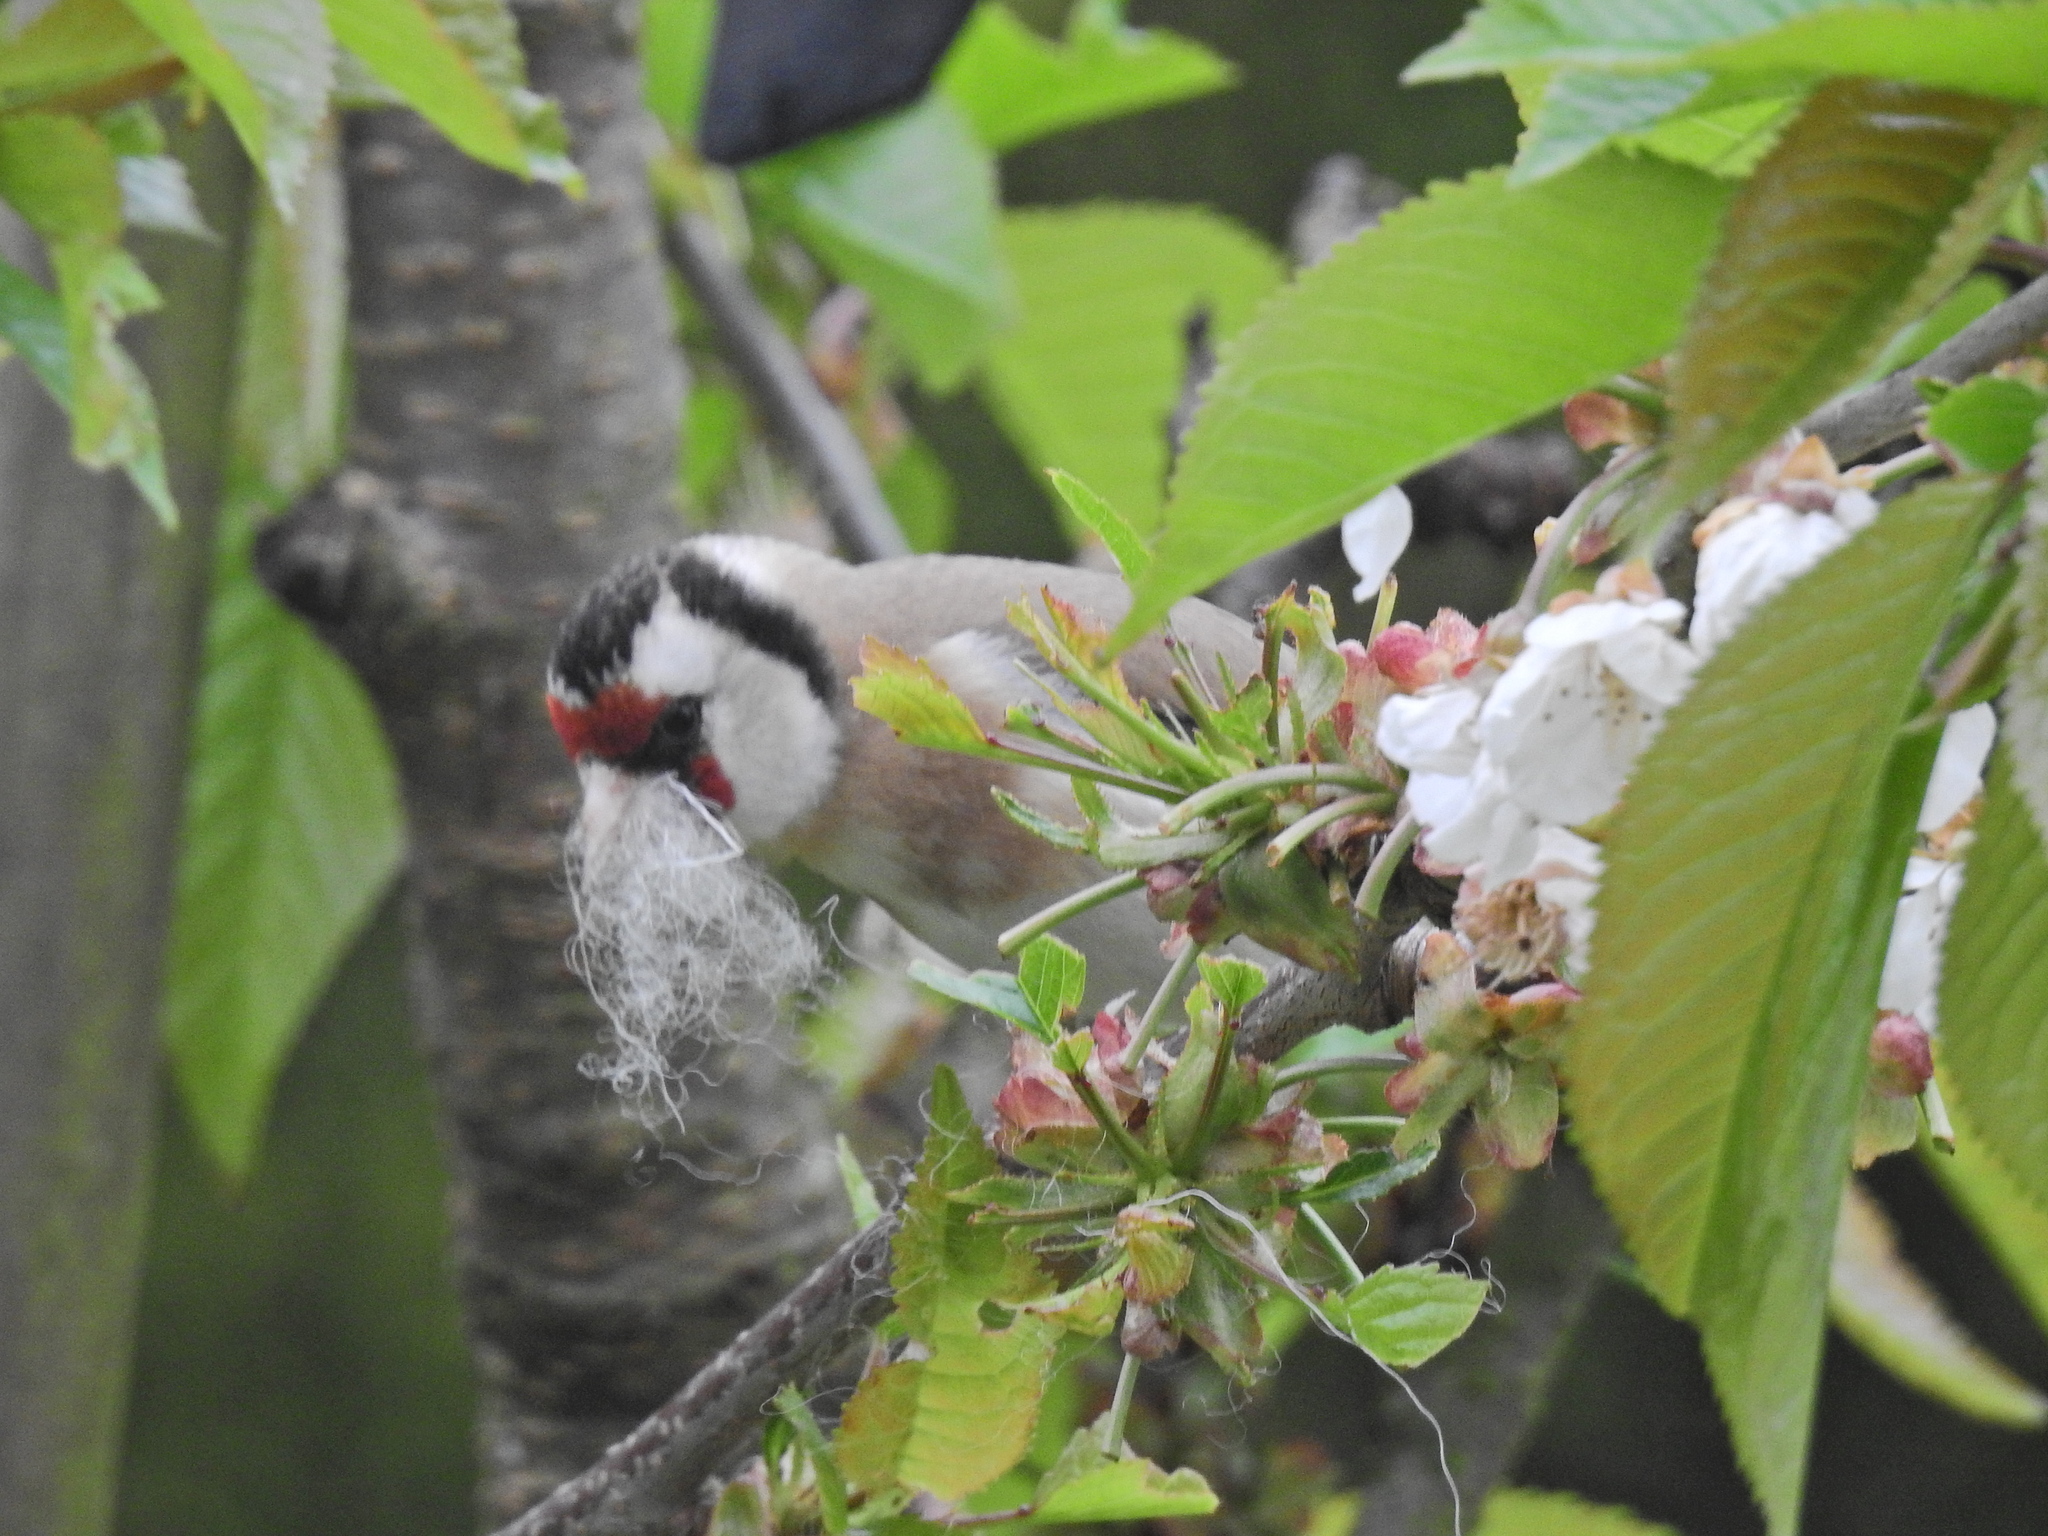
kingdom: Animalia
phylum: Chordata
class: Aves
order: Passeriformes
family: Fringillidae
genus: Carduelis
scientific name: Carduelis carduelis
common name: European goldfinch
